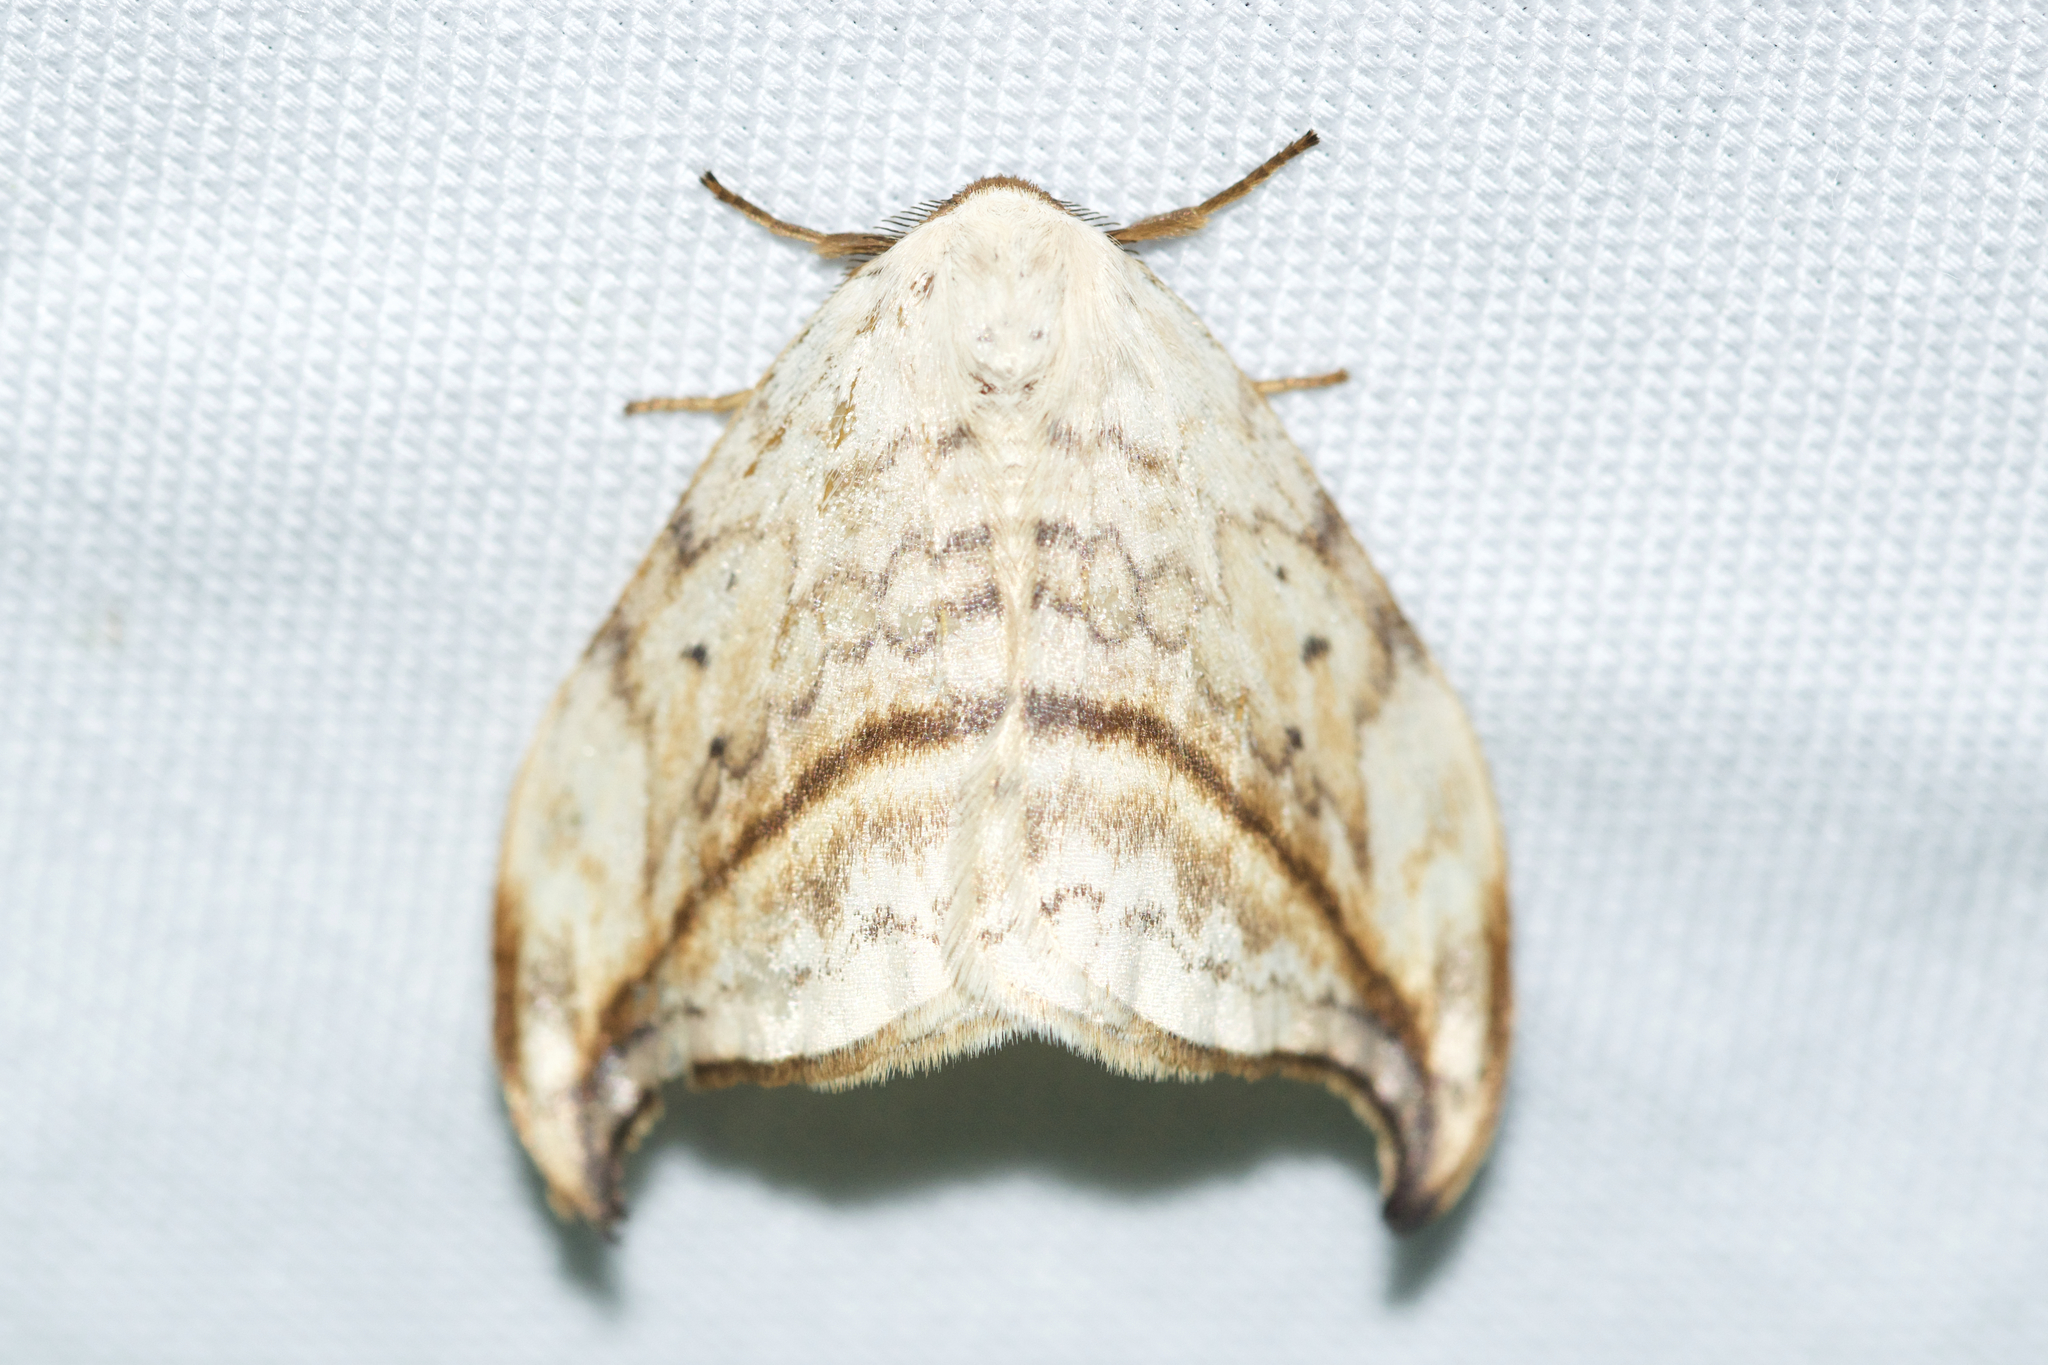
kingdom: Animalia
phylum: Arthropoda
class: Insecta
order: Lepidoptera
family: Drepanidae
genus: Drepana
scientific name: Drepana arcuata
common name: Arched hooktip moth
